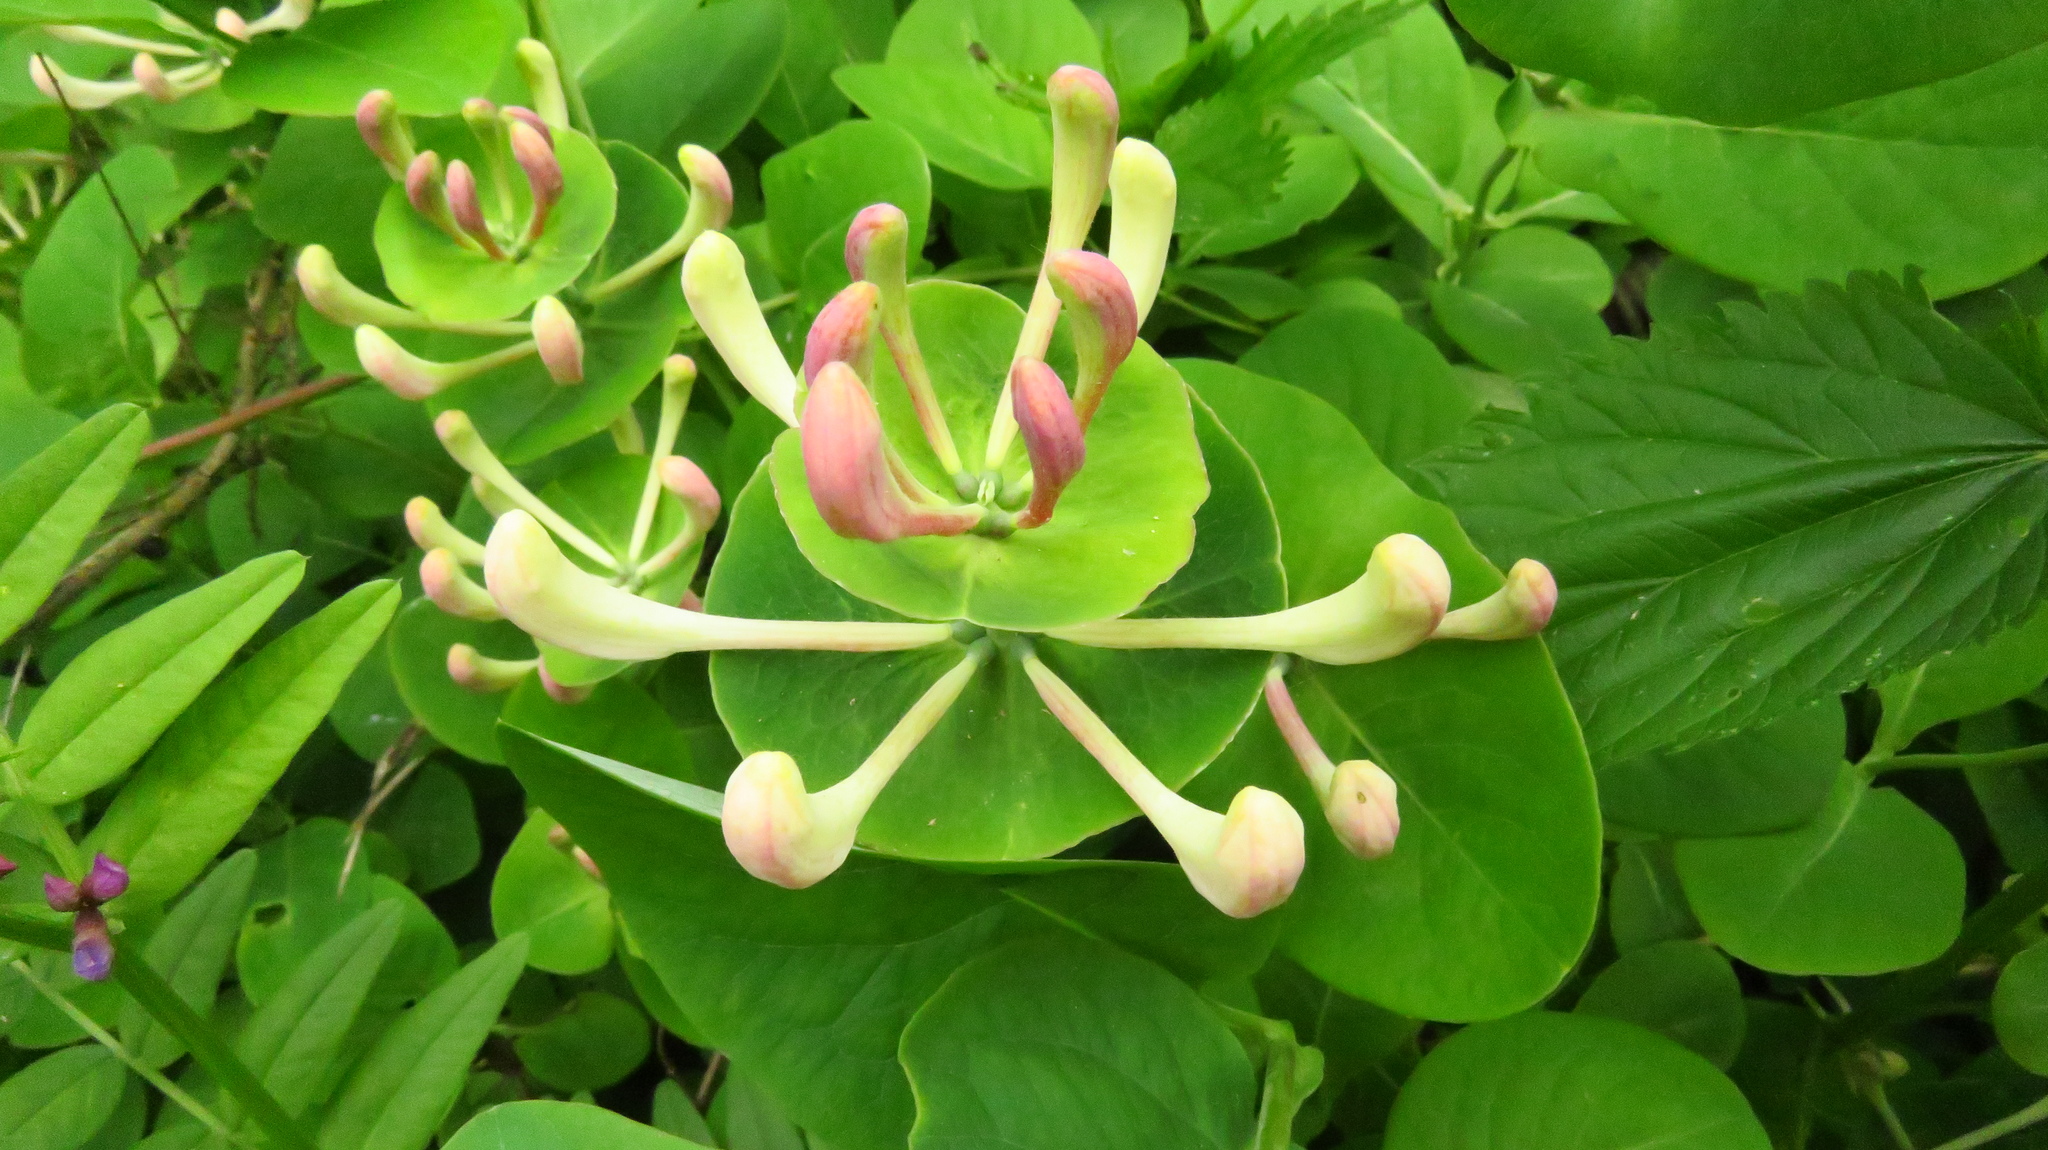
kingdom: Plantae
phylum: Tracheophyta
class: Magnoliopsida
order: Dipsacales
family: Caprifoliaceae
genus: Lonicera
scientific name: Lonicera caprifolium
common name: Perfoliate honeysuckle
